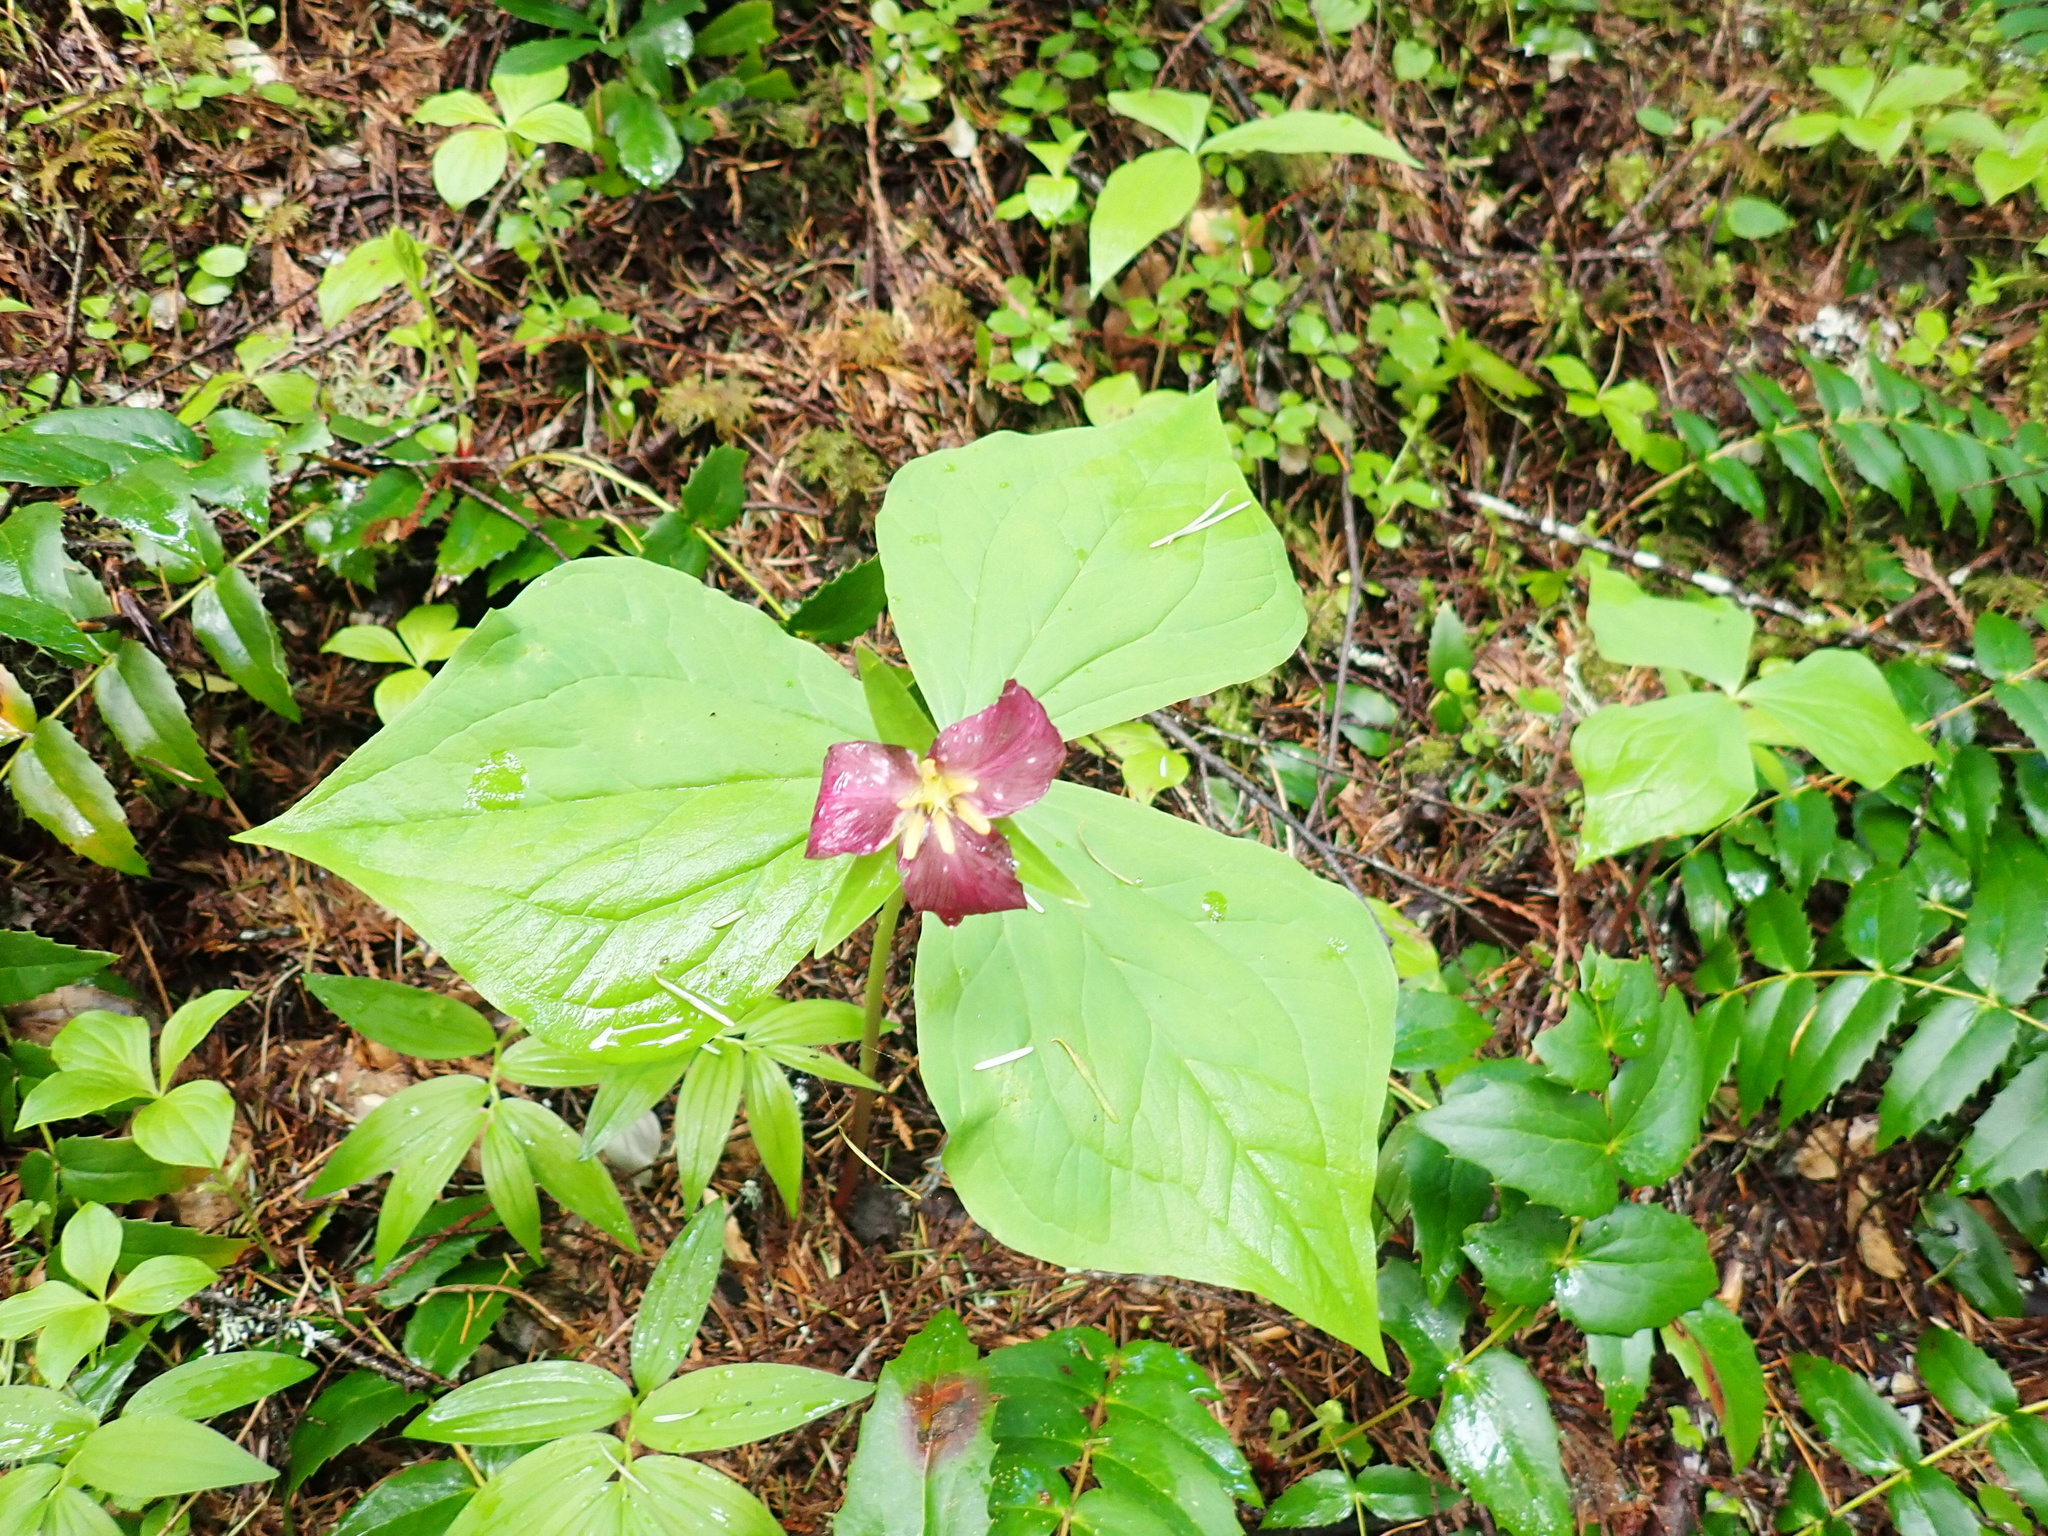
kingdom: Plantae
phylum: Tracheophyta
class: Liliopsida
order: Liliales
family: Melanthiaceae
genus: Trillium
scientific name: Trillium ovatum
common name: Pacific trillium
